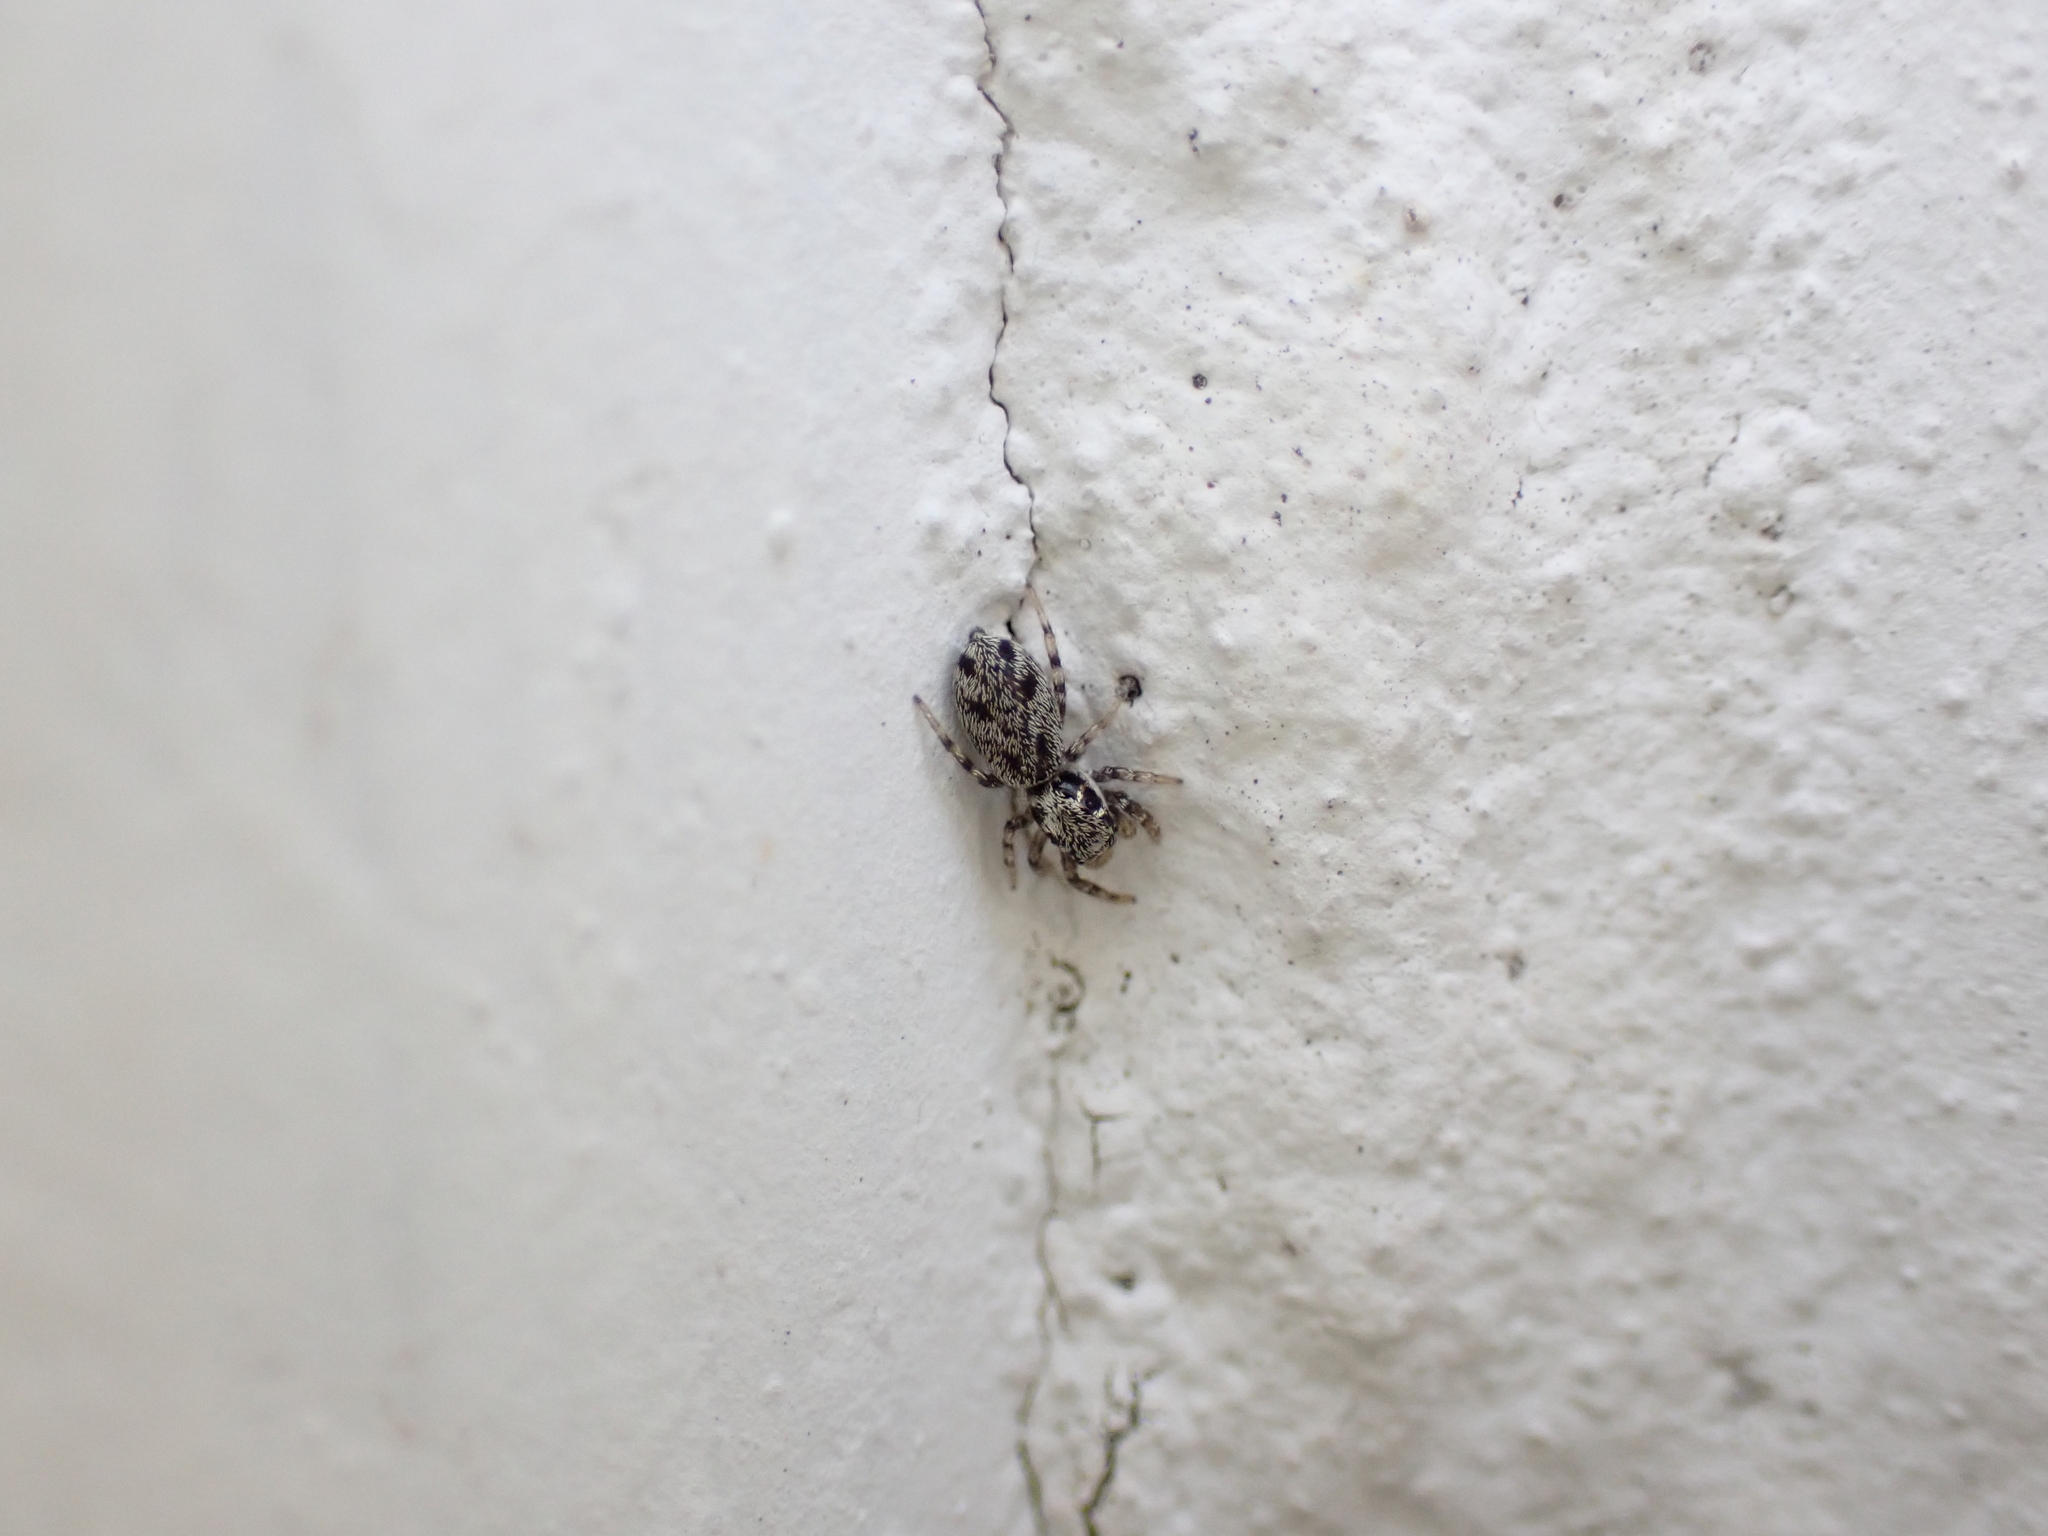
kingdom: Animalia
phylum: Arthropoda
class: Arachnida
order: Araneae
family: Salticidae
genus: Salticus
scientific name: Salticus cingulatus
